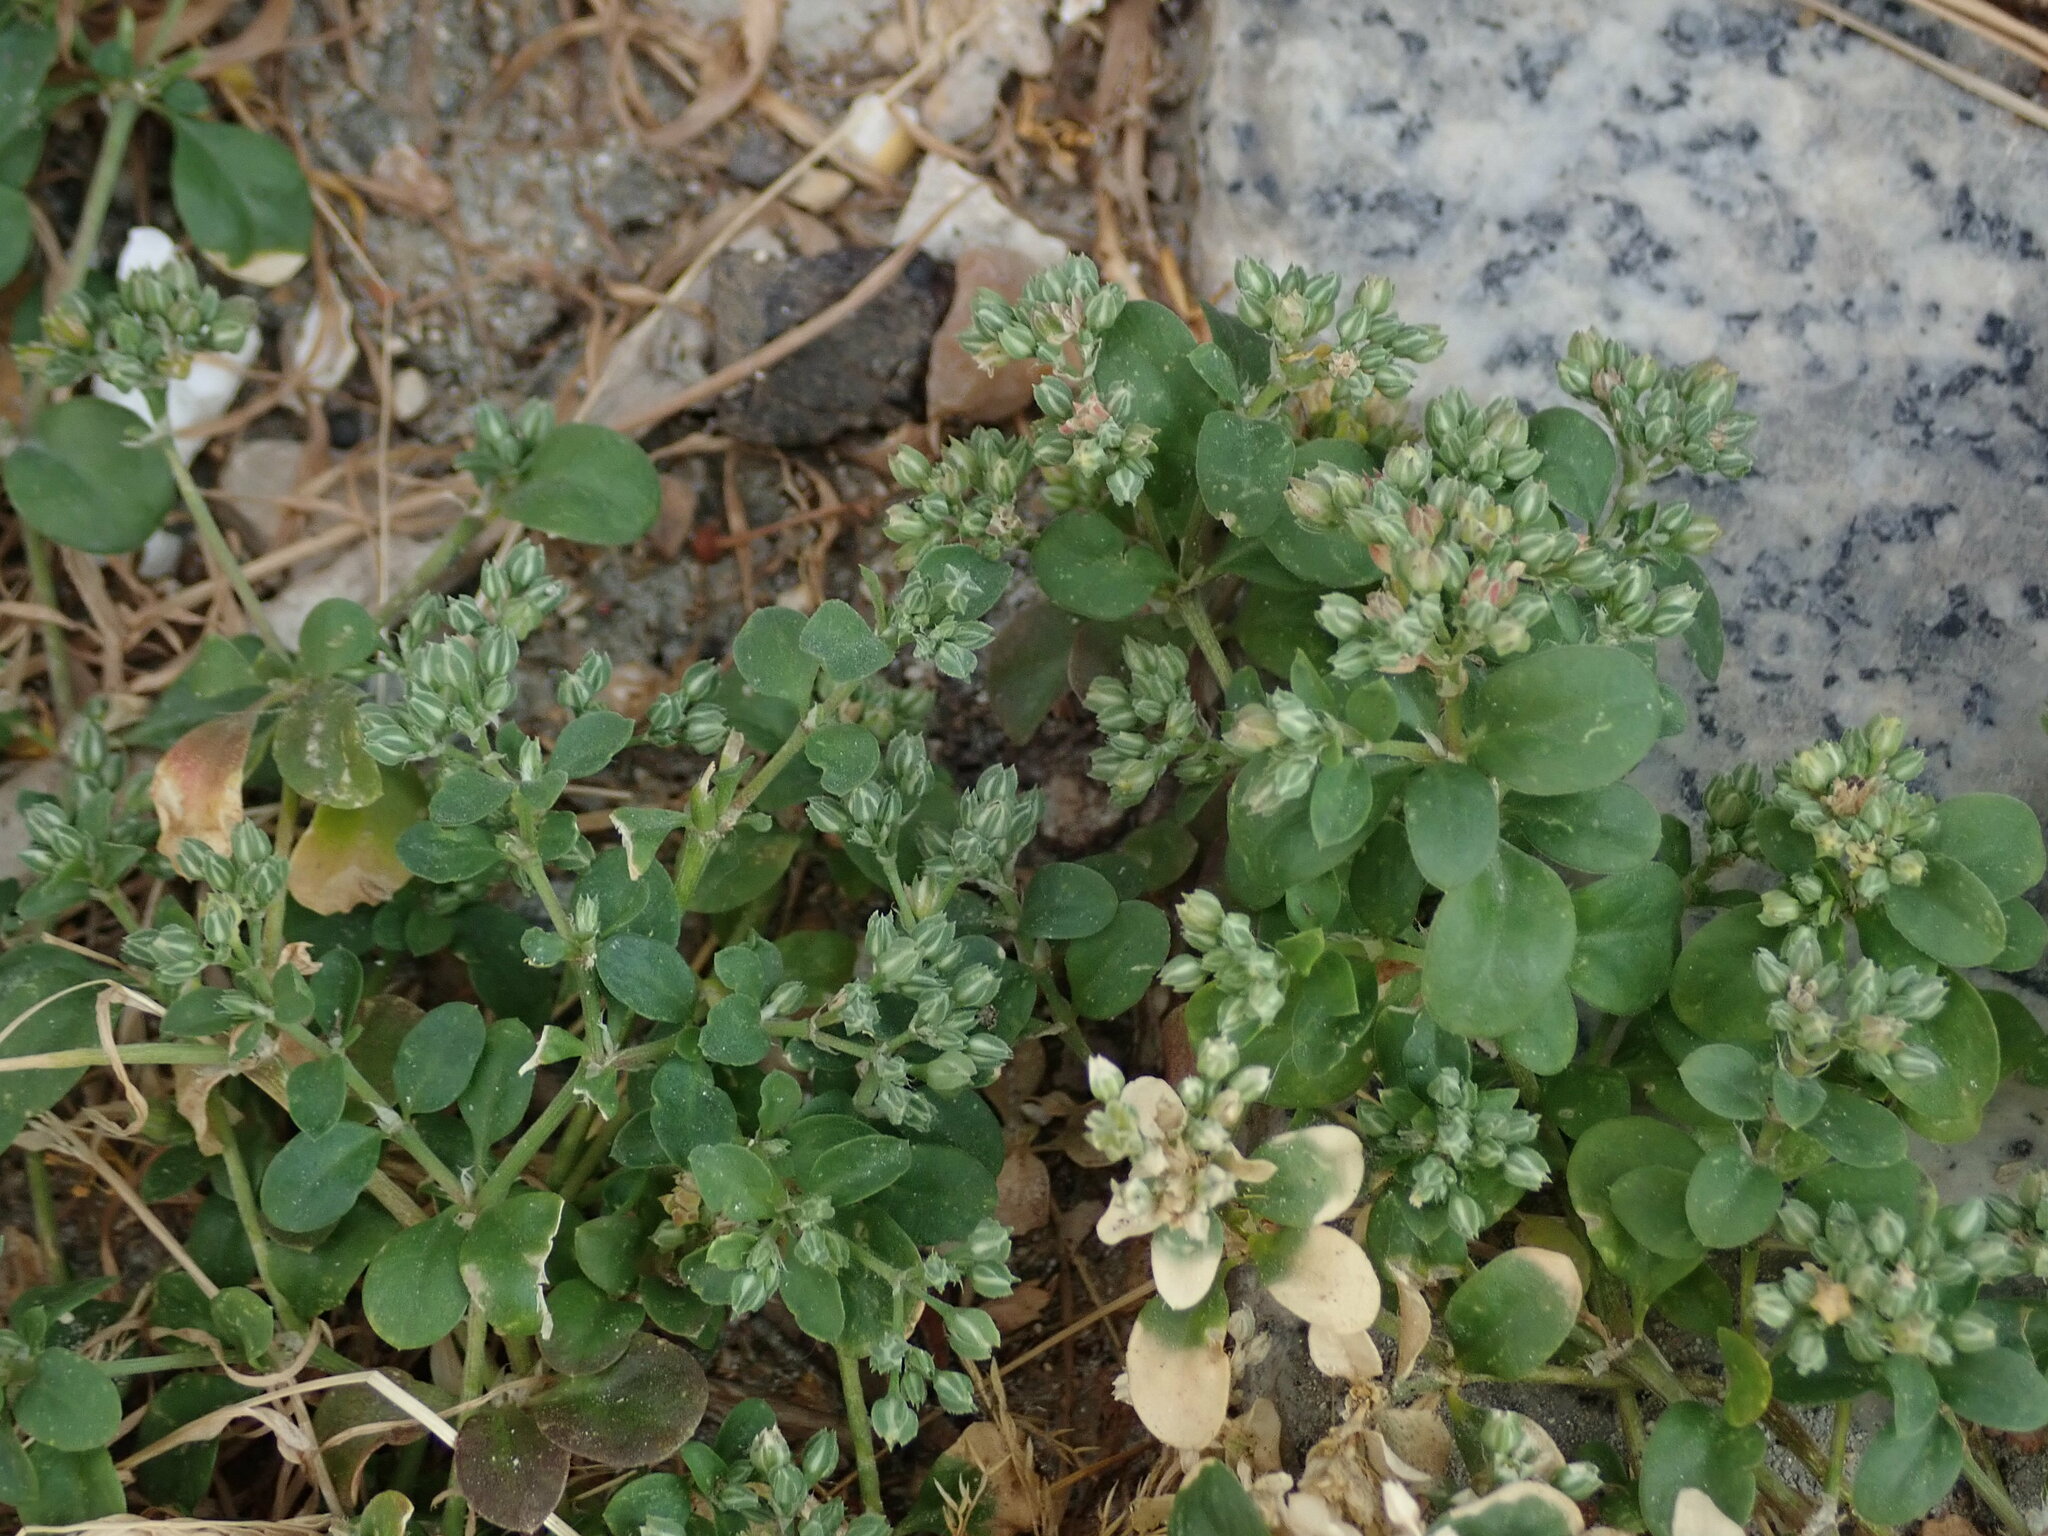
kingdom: Plantae
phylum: Tracheophyta
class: Magnoliopsida
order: Caryophyllales
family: Caryophyllaceae
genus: Polycarpon
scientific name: Polycarpon tetraphyllum
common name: Four-leaved all-seed
